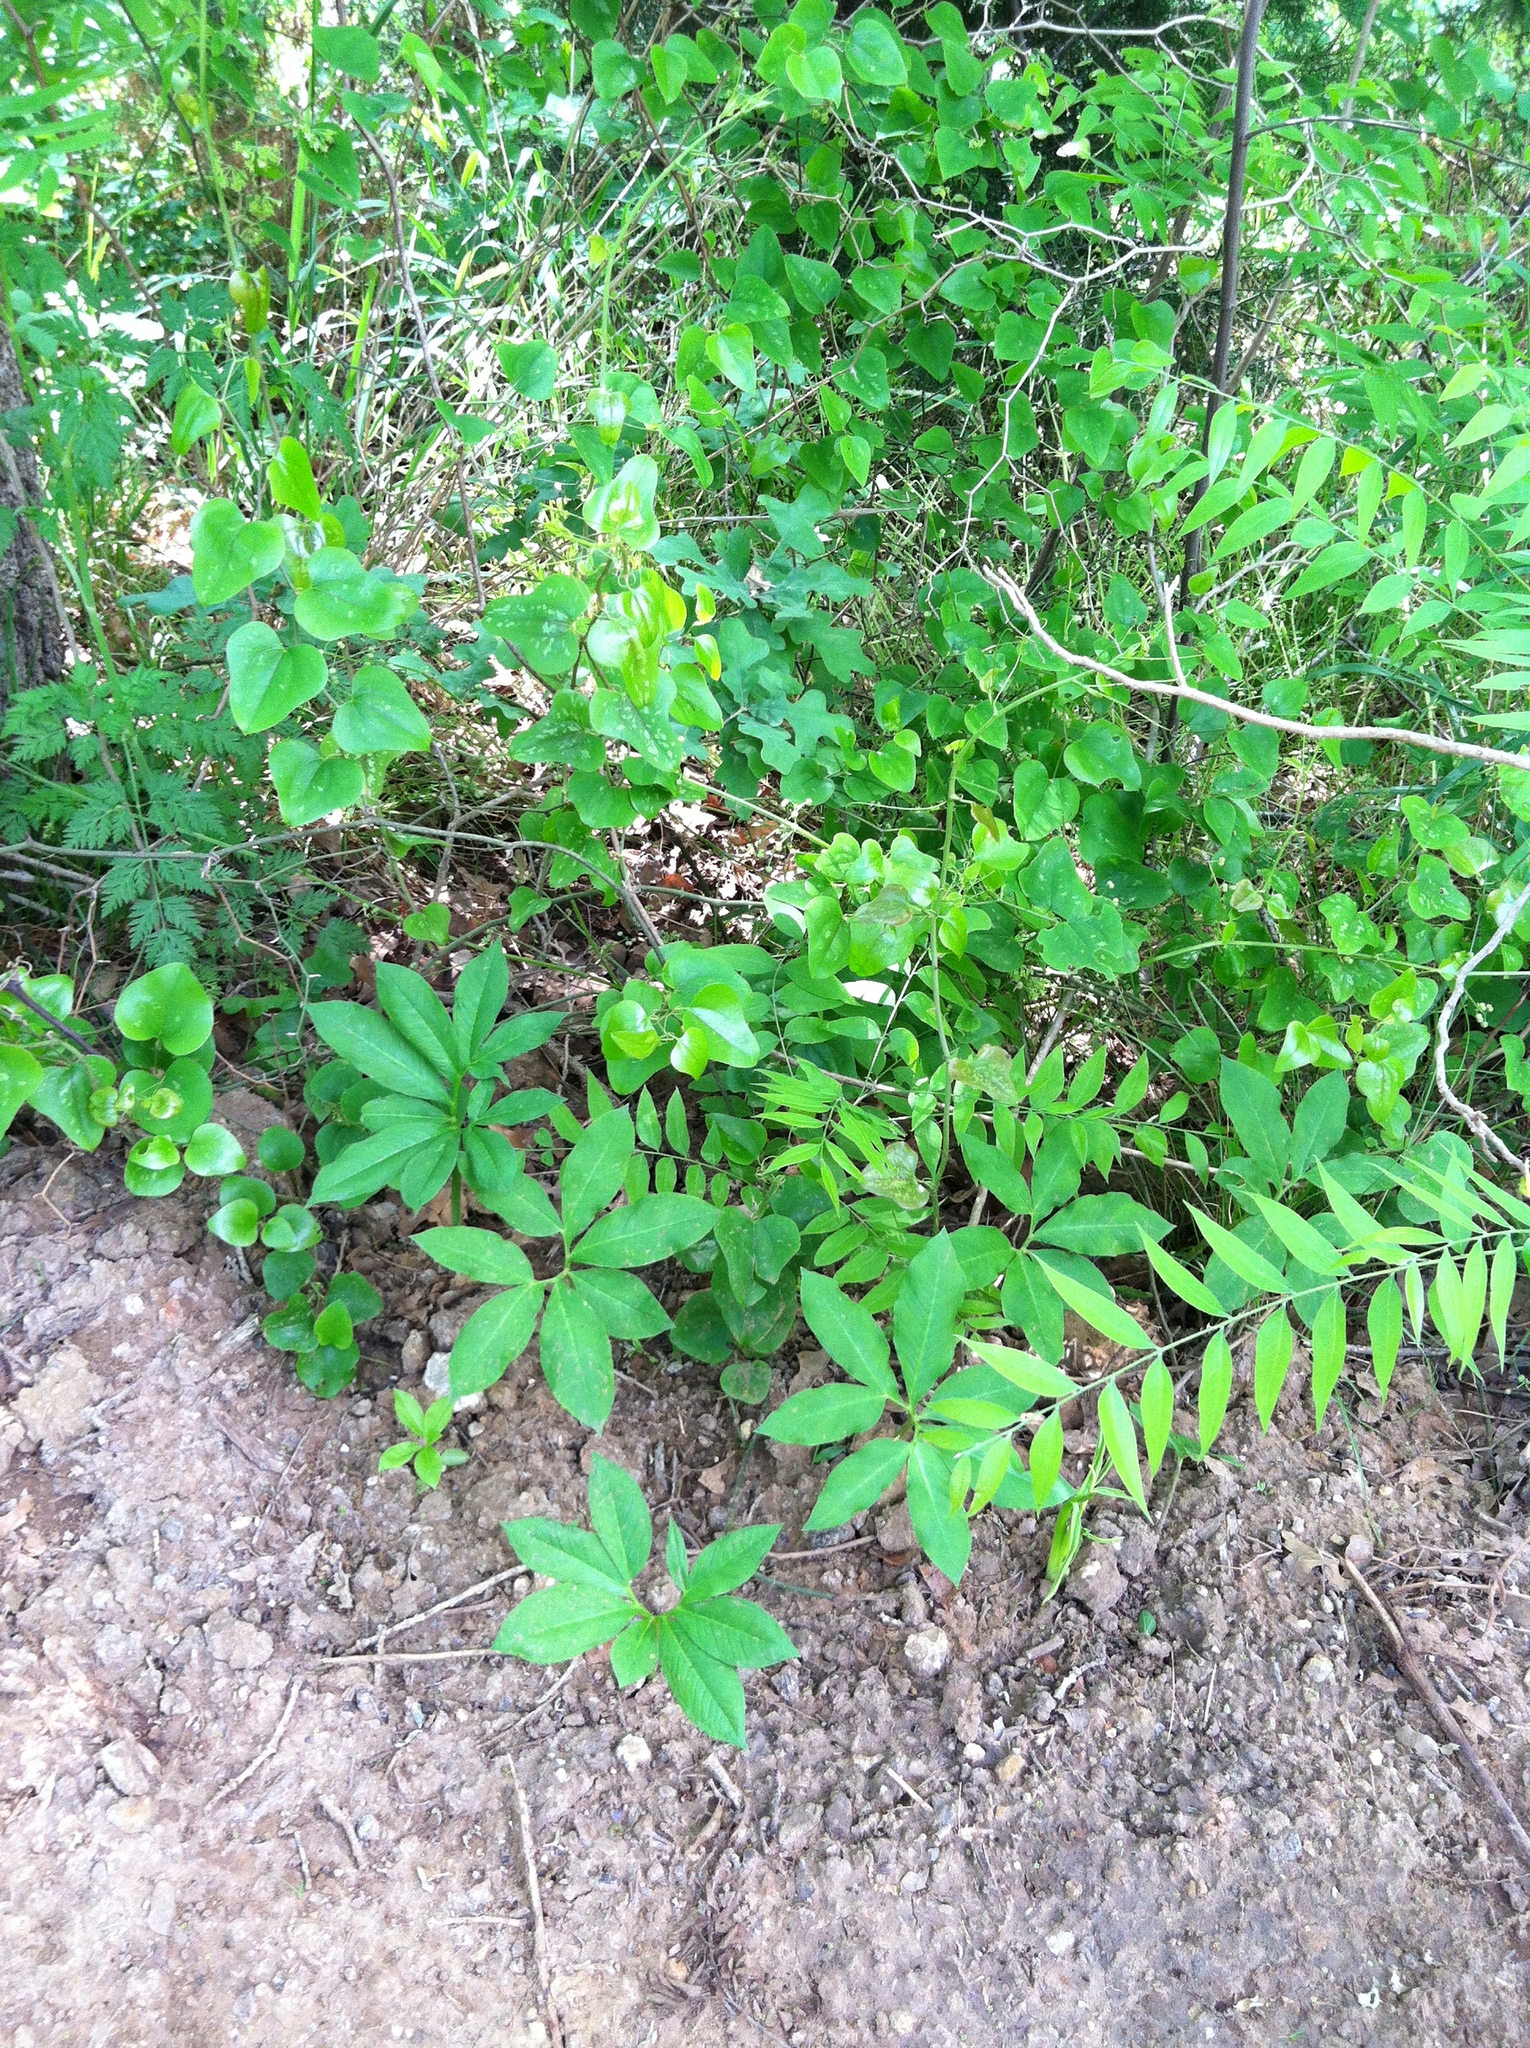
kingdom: Plantae
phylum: Tracheophyta
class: Liliopsida
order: Alismatales
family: Araceae
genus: Arisaema
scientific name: Arisaema dracontium
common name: Dragon-arum
